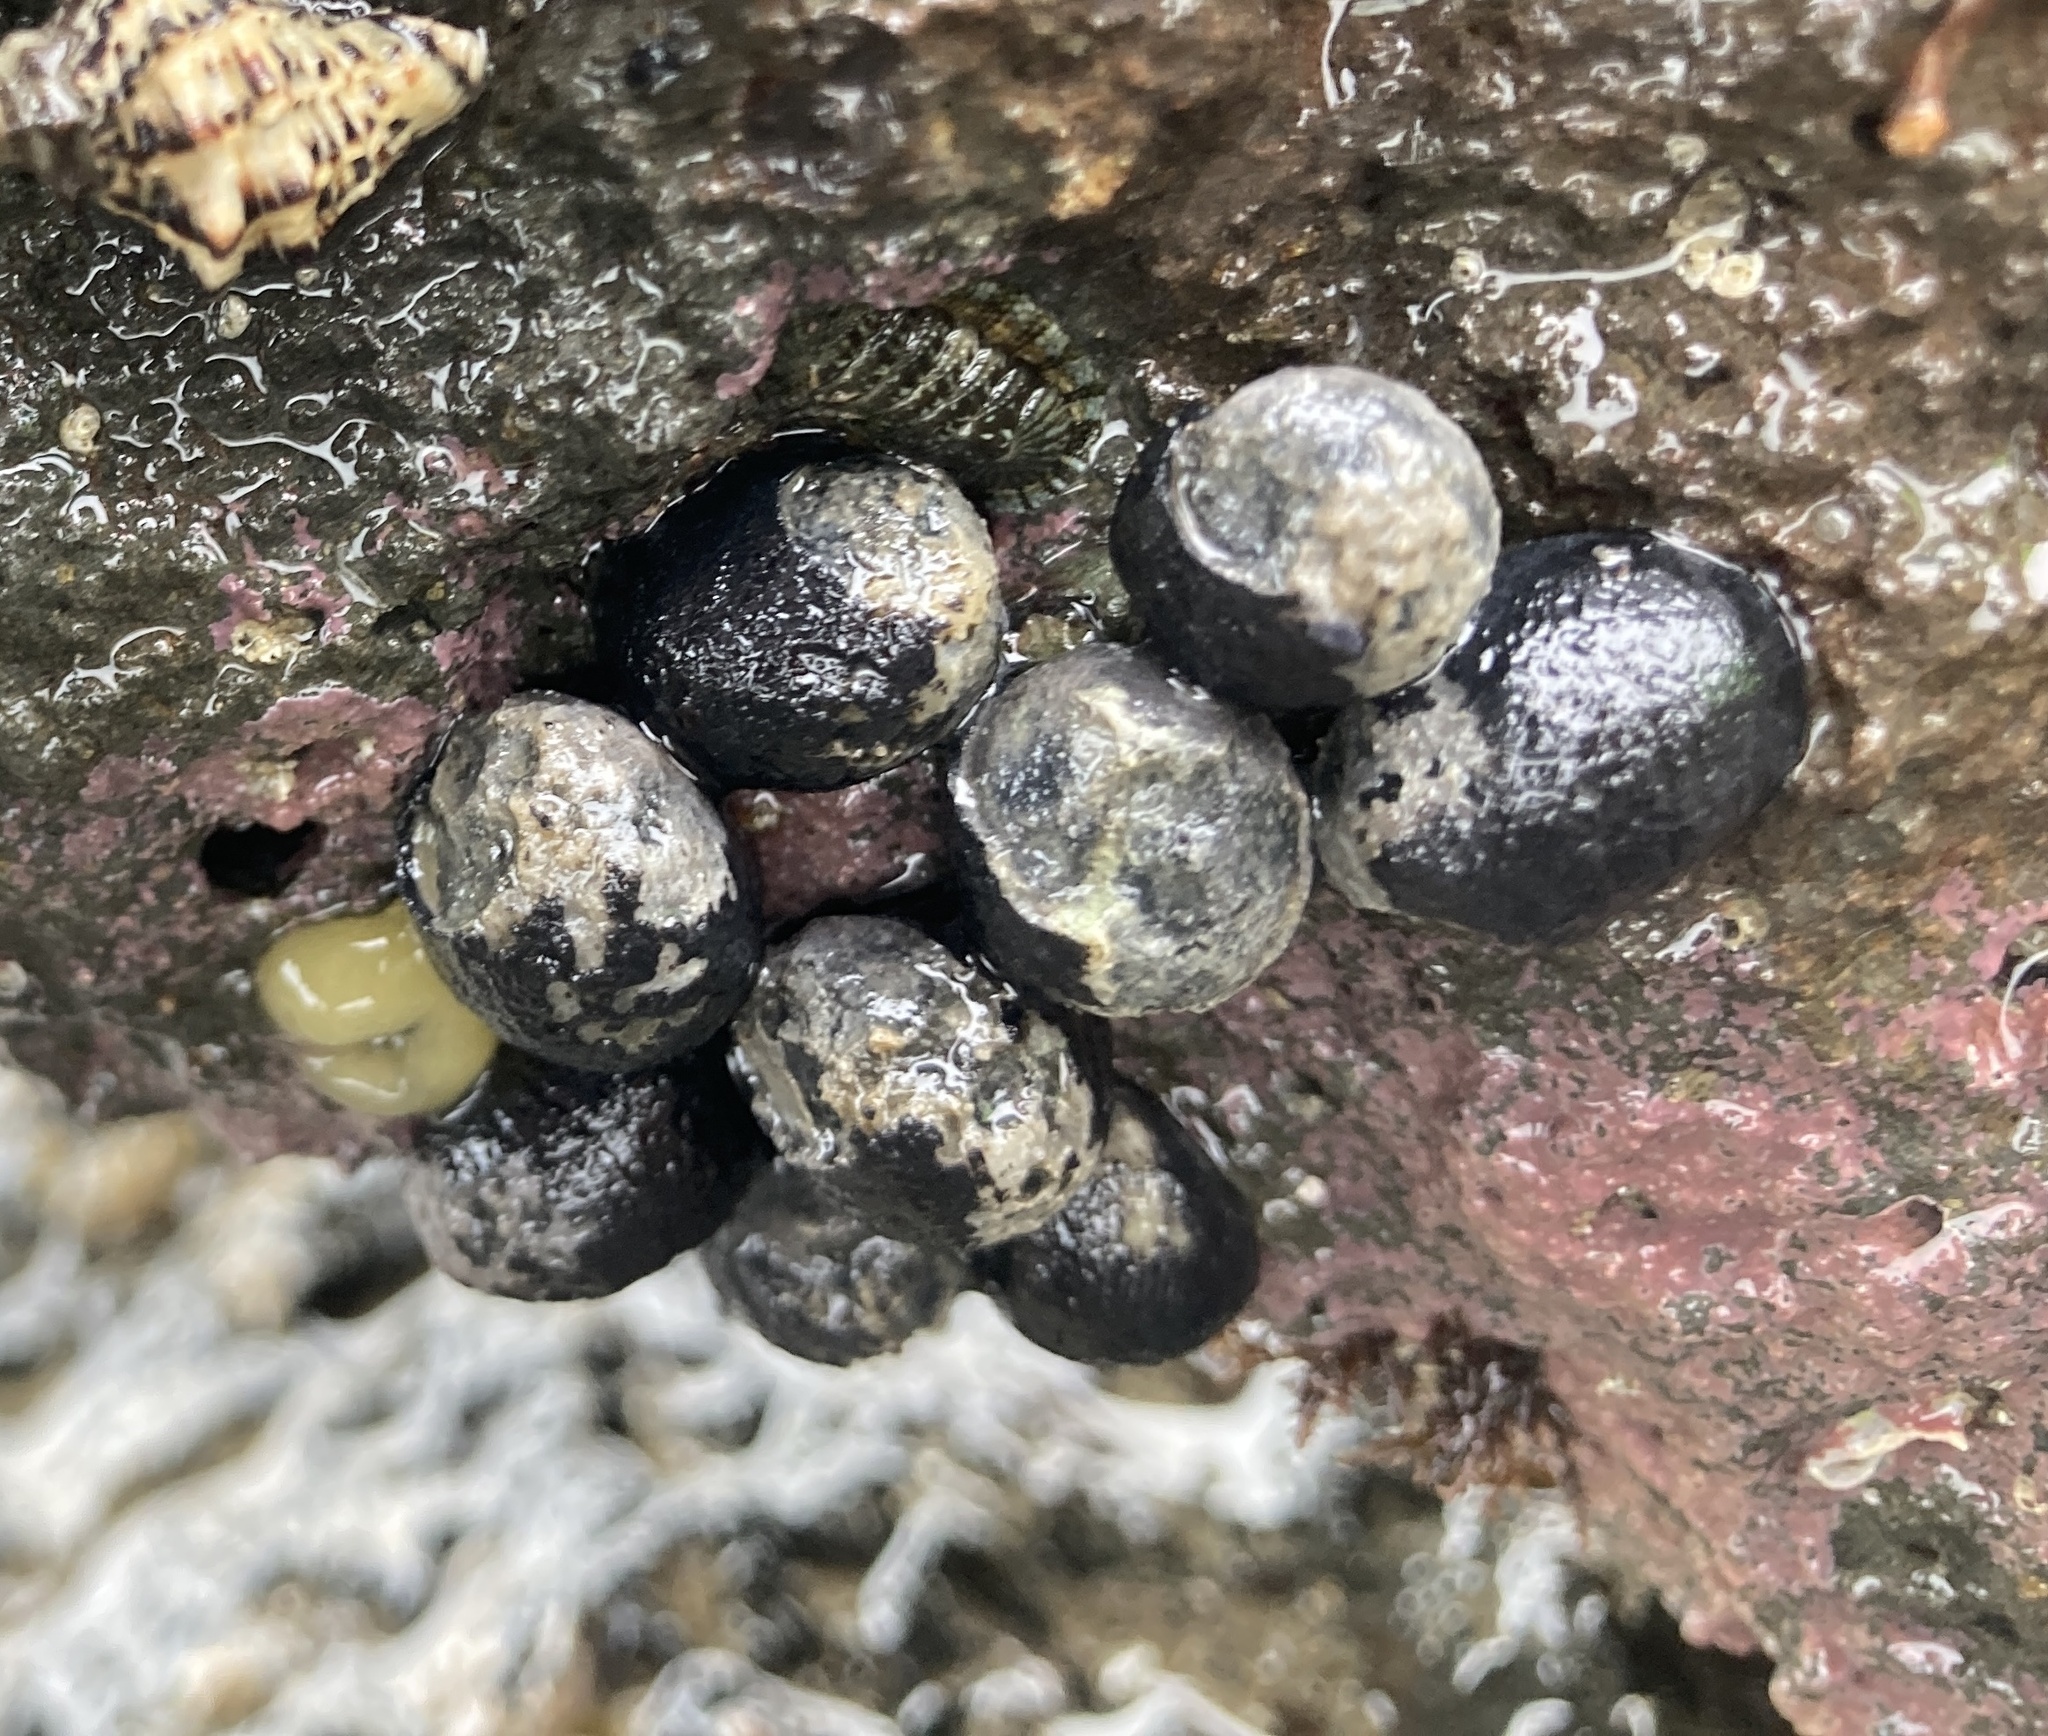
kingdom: Animalia
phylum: Mollusca
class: Gastropoda
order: Cycloneritida
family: Neritidae
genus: Nerita
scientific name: Nerita melanotragus
